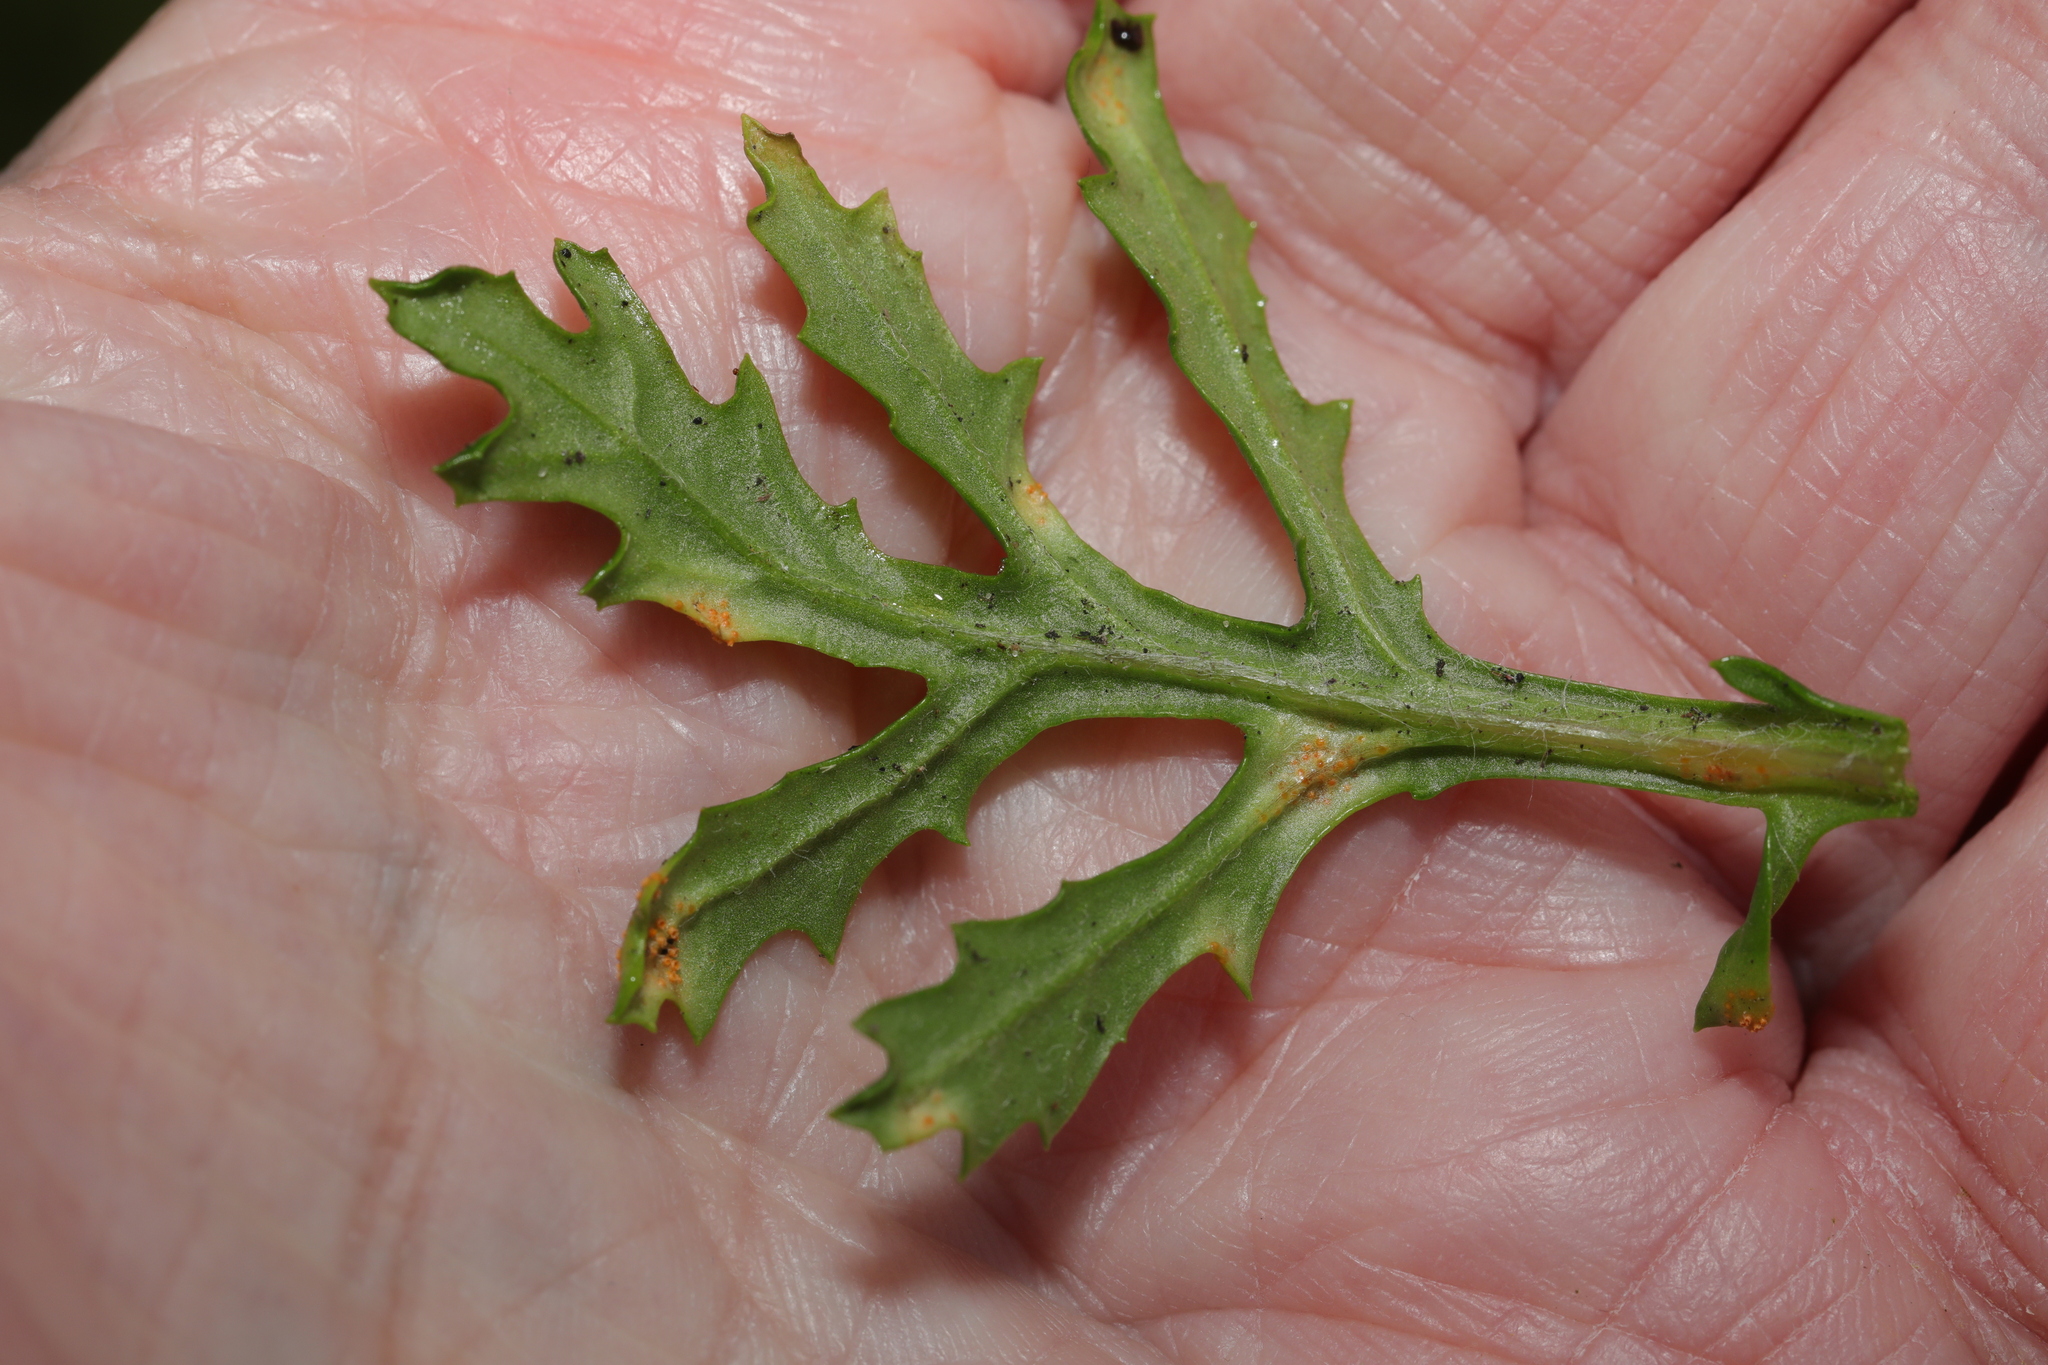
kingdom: Fungi
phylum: Basidiomycota
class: Pucciniomycetes
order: Pucciniales
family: Pucciniaceae
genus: Puccinia
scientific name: Puccinia lagenophorae
